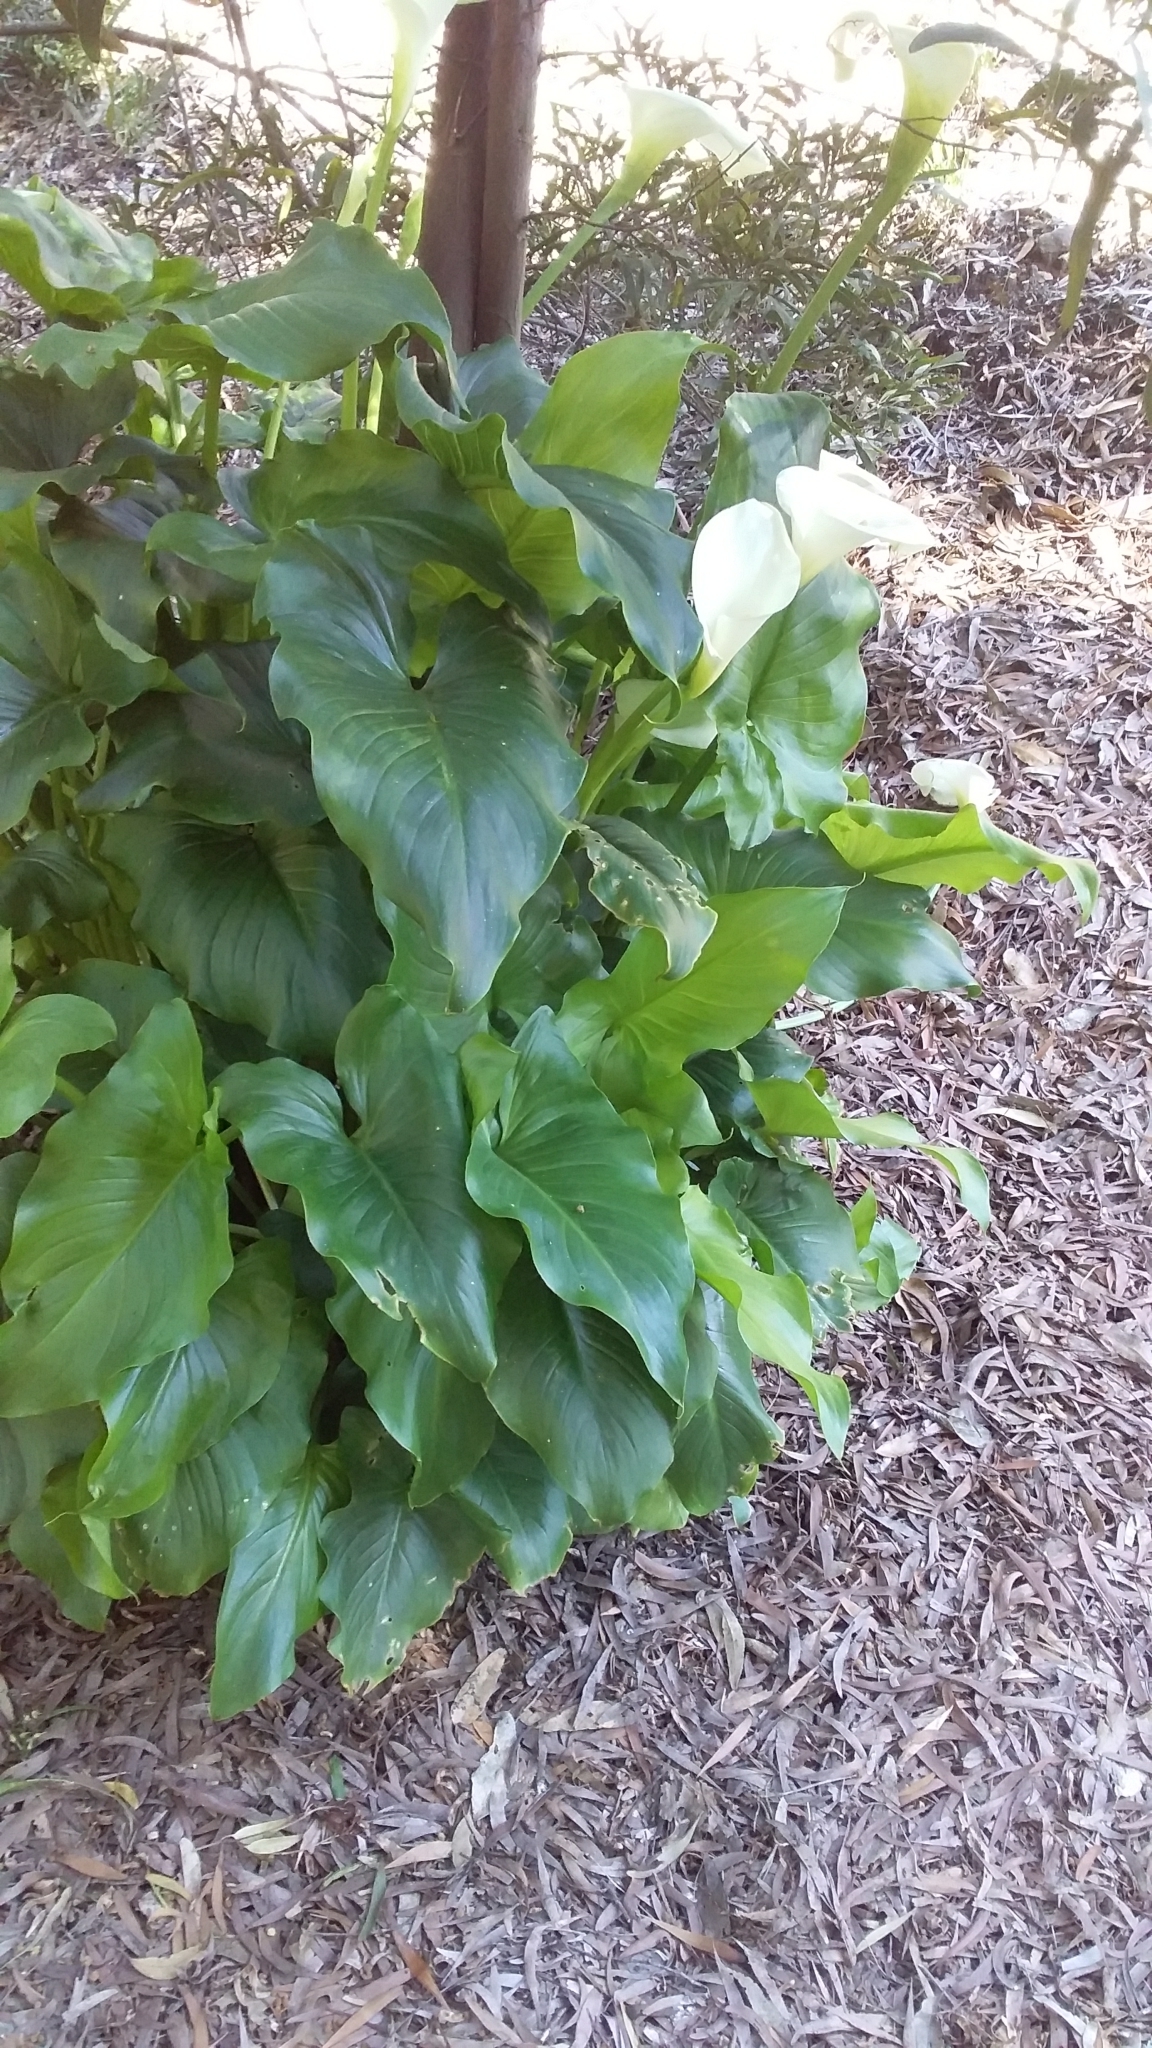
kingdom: Plantae
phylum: Tracheophyta
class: Liliopsida
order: Alismatales
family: Araceae
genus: Zantedeschia
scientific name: Zantedeschia aethiopica
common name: Altar-lily
